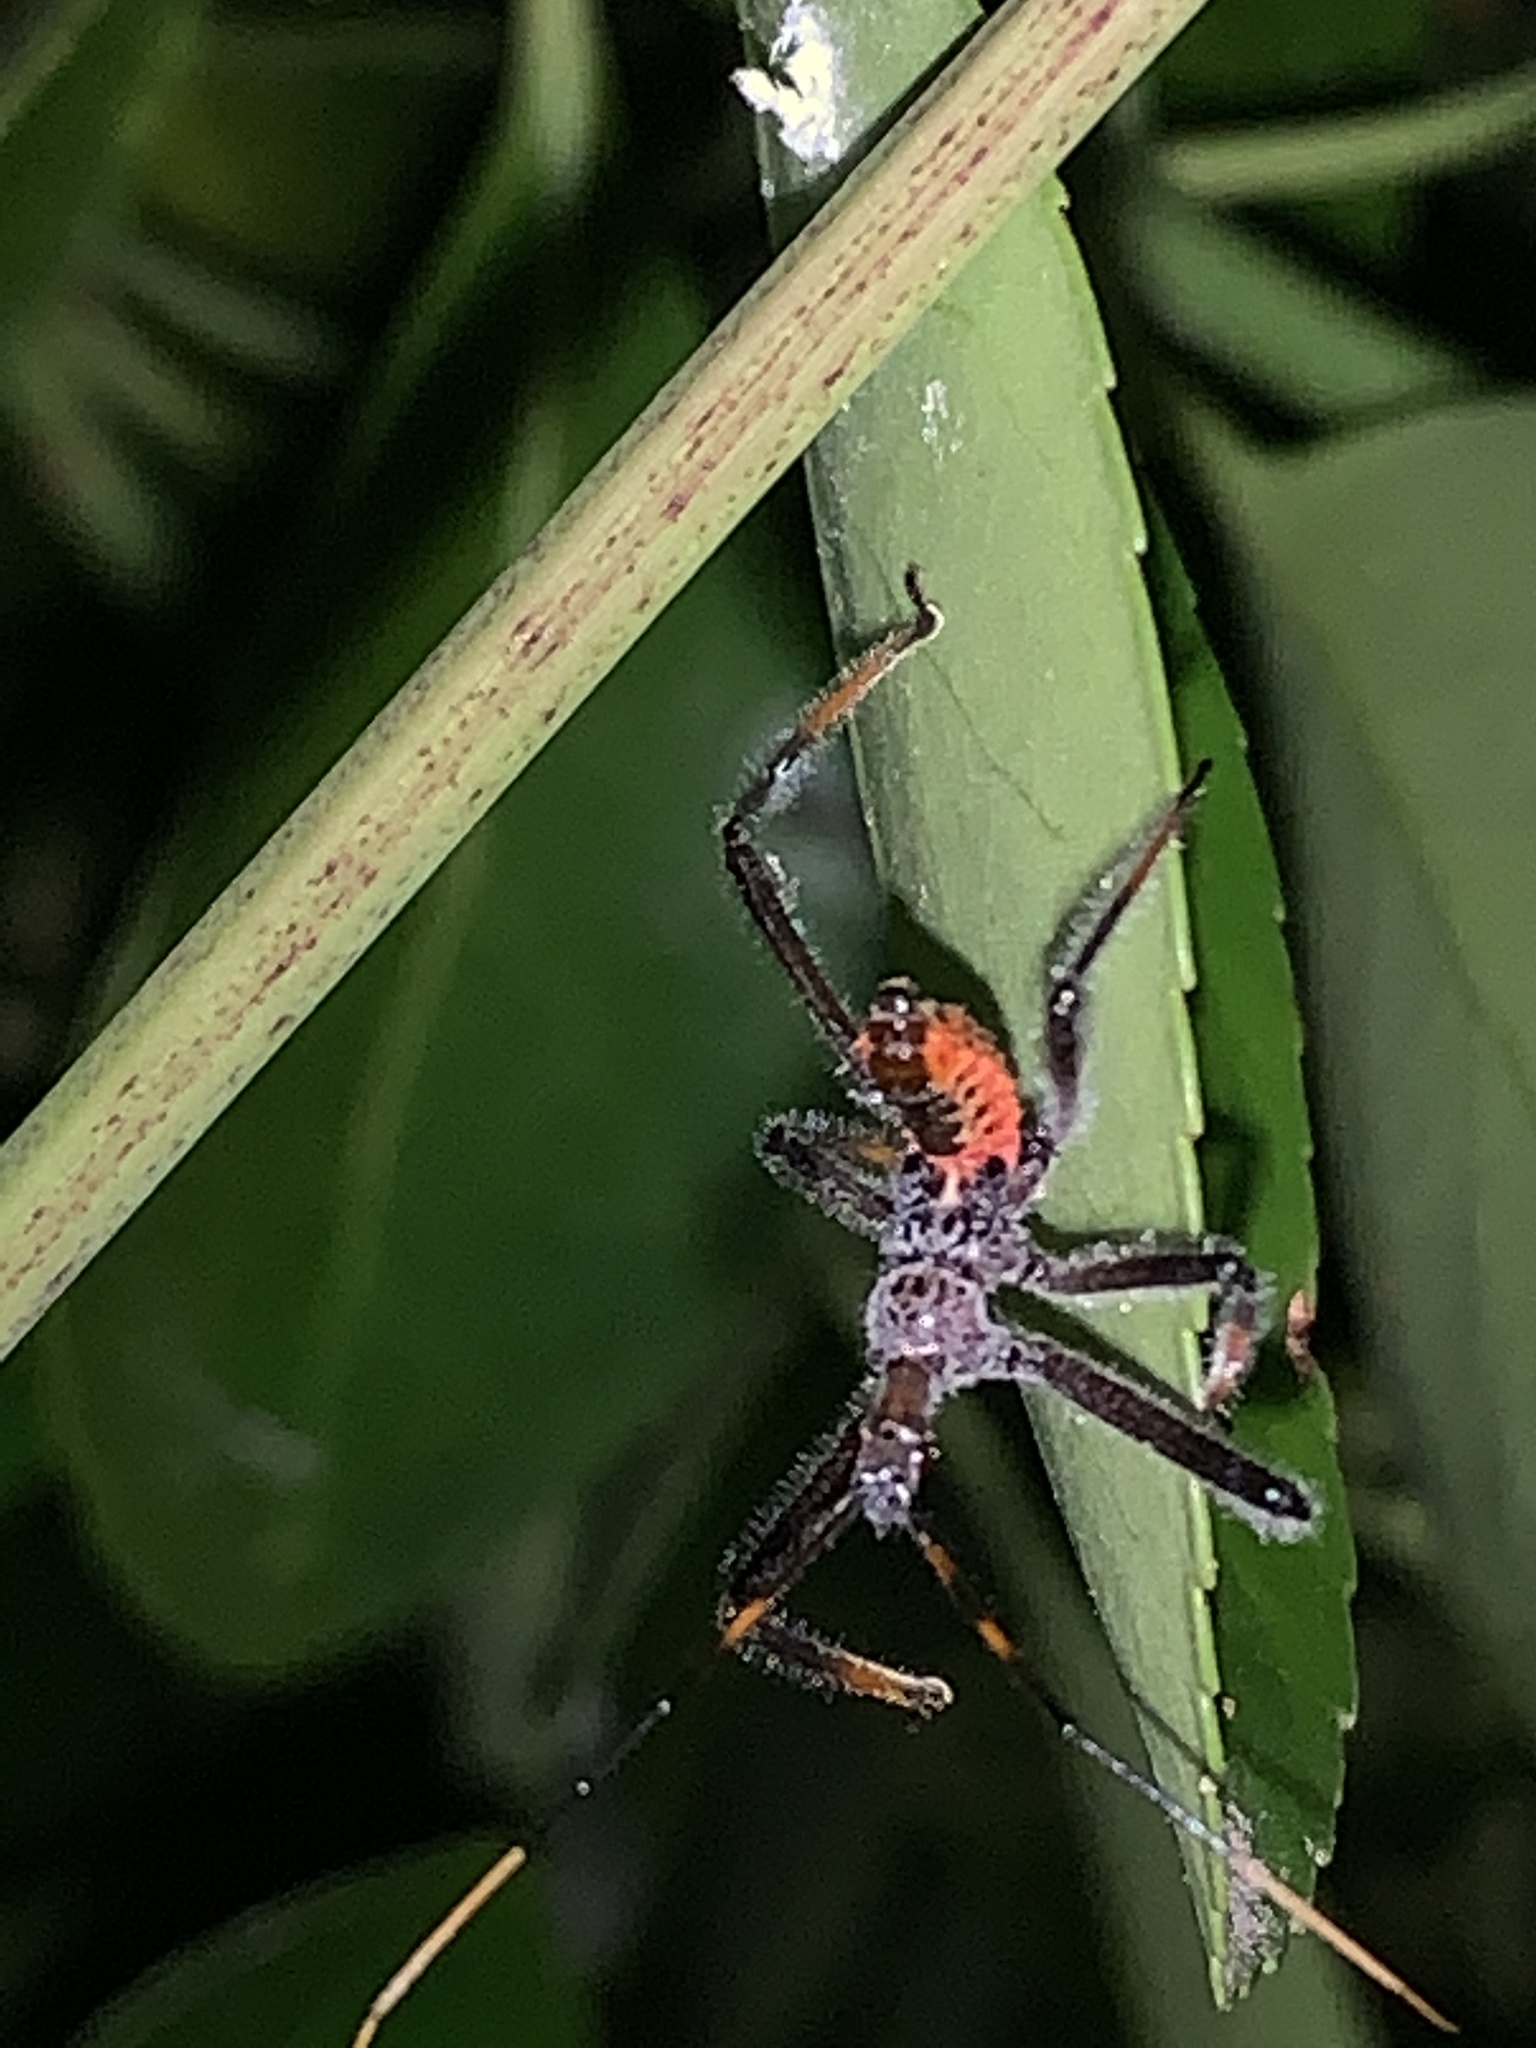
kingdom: Animalia
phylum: Arthropoda
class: Insecta
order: Hemiptera
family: Reduviidae
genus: Arilus
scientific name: Arilus cristatus
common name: North american wheel bug
